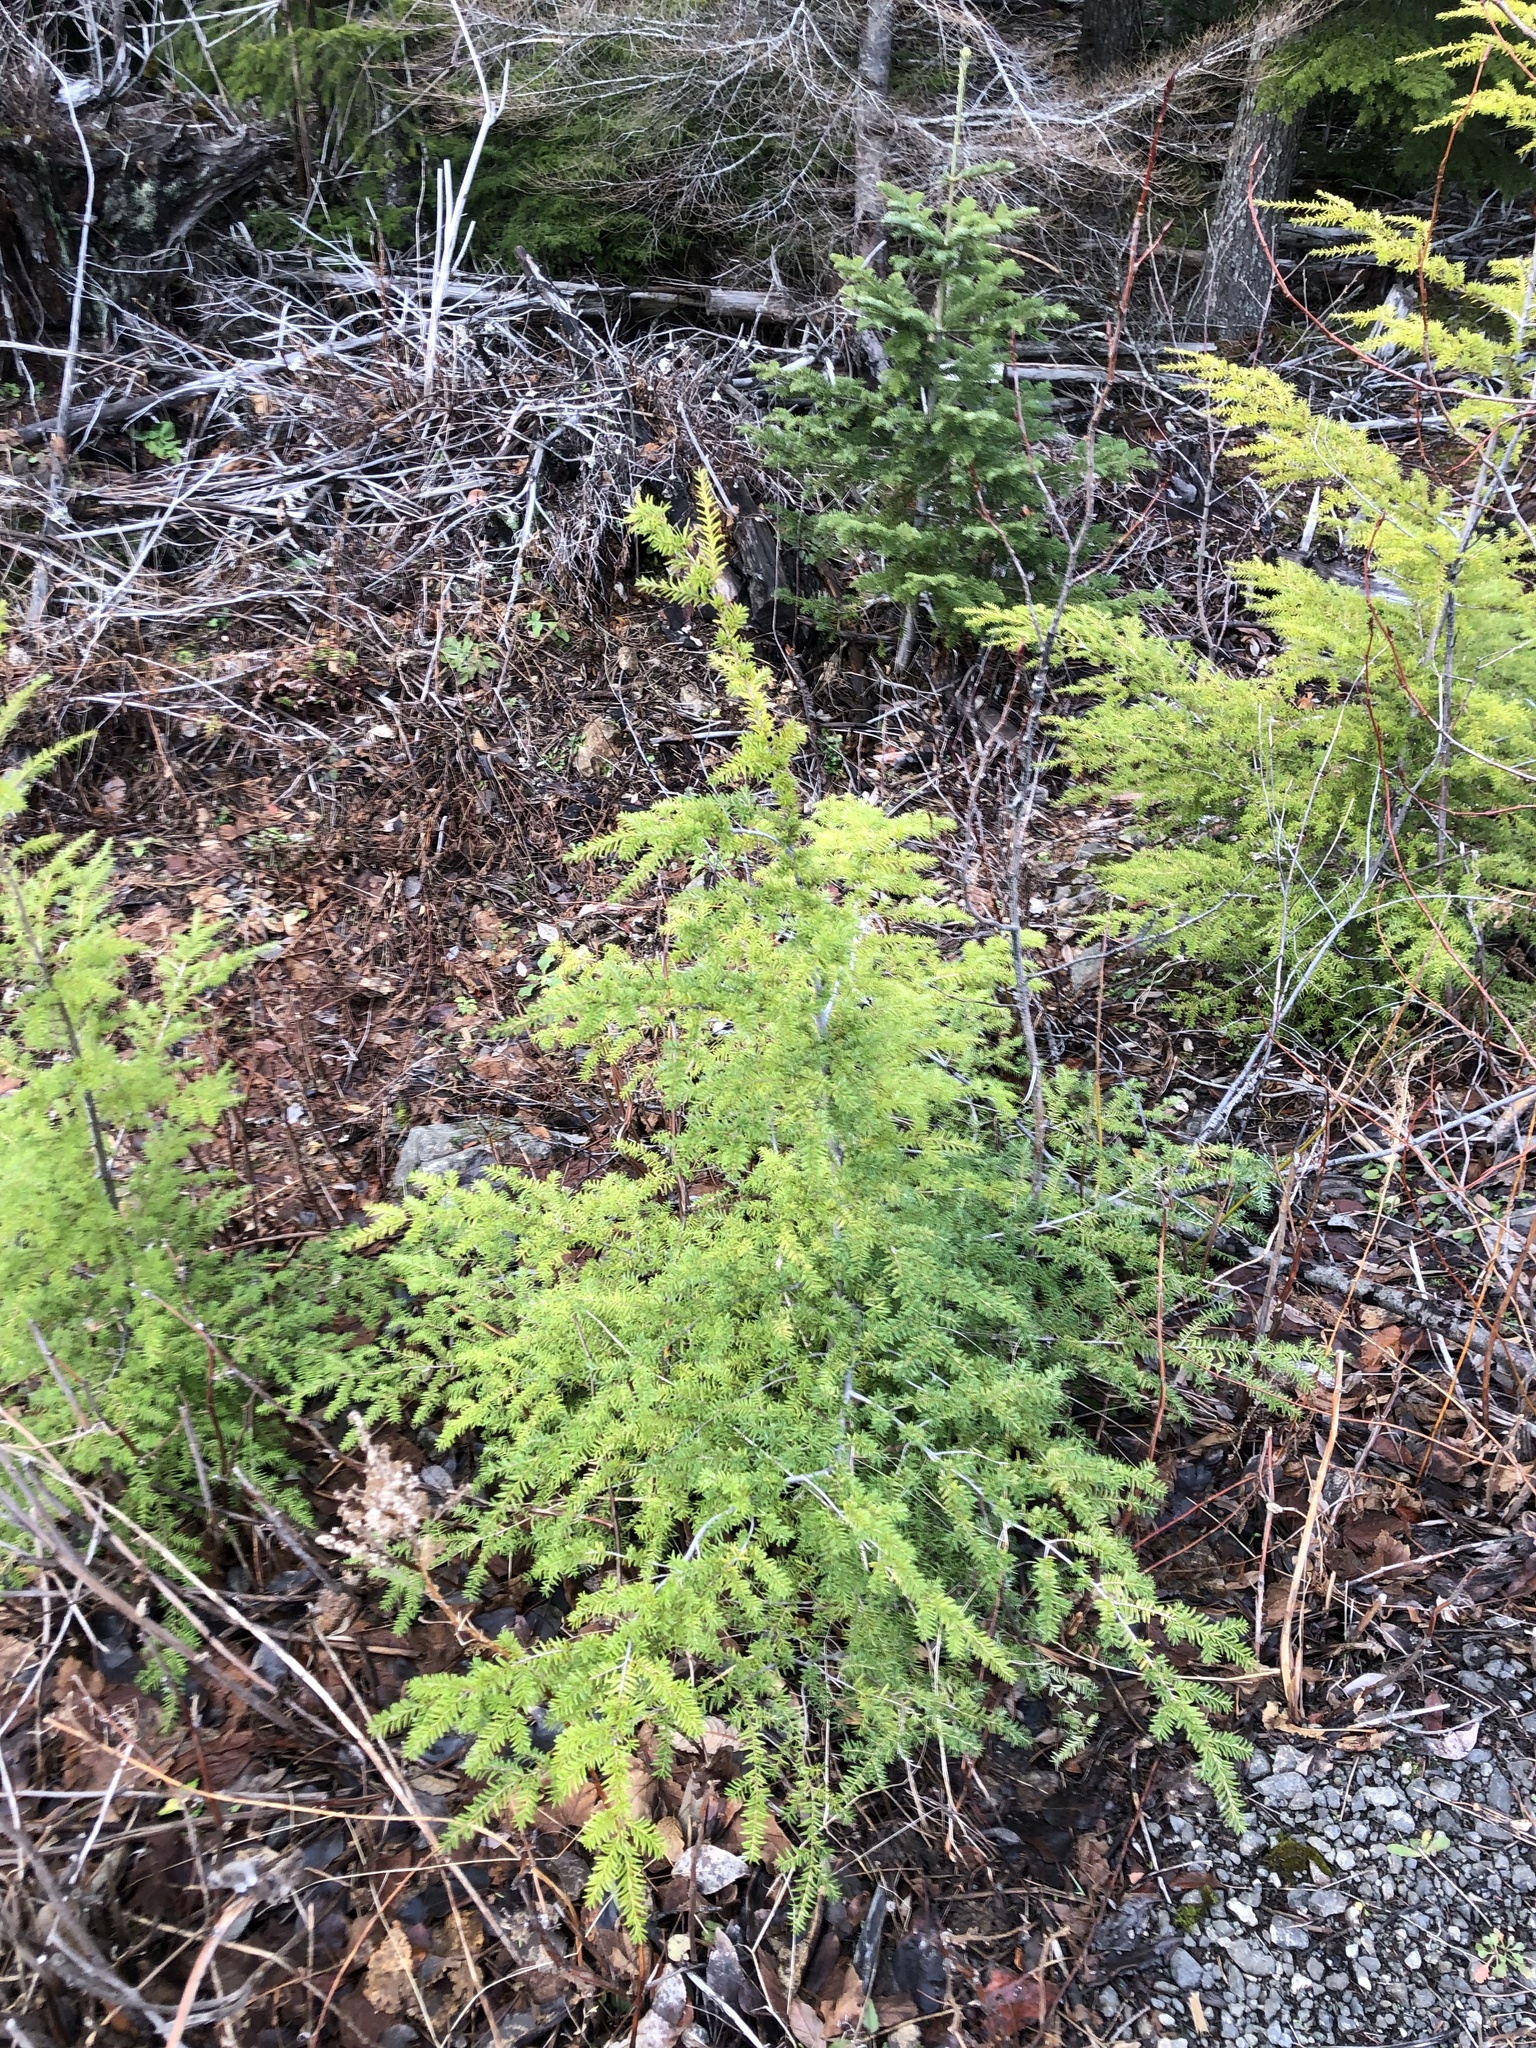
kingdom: Plantae
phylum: Tracheophyta
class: Pinopsida
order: Pinales
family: Pinaceae
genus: Tsuga
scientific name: Tsuga heterophylla
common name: Western hemlock
